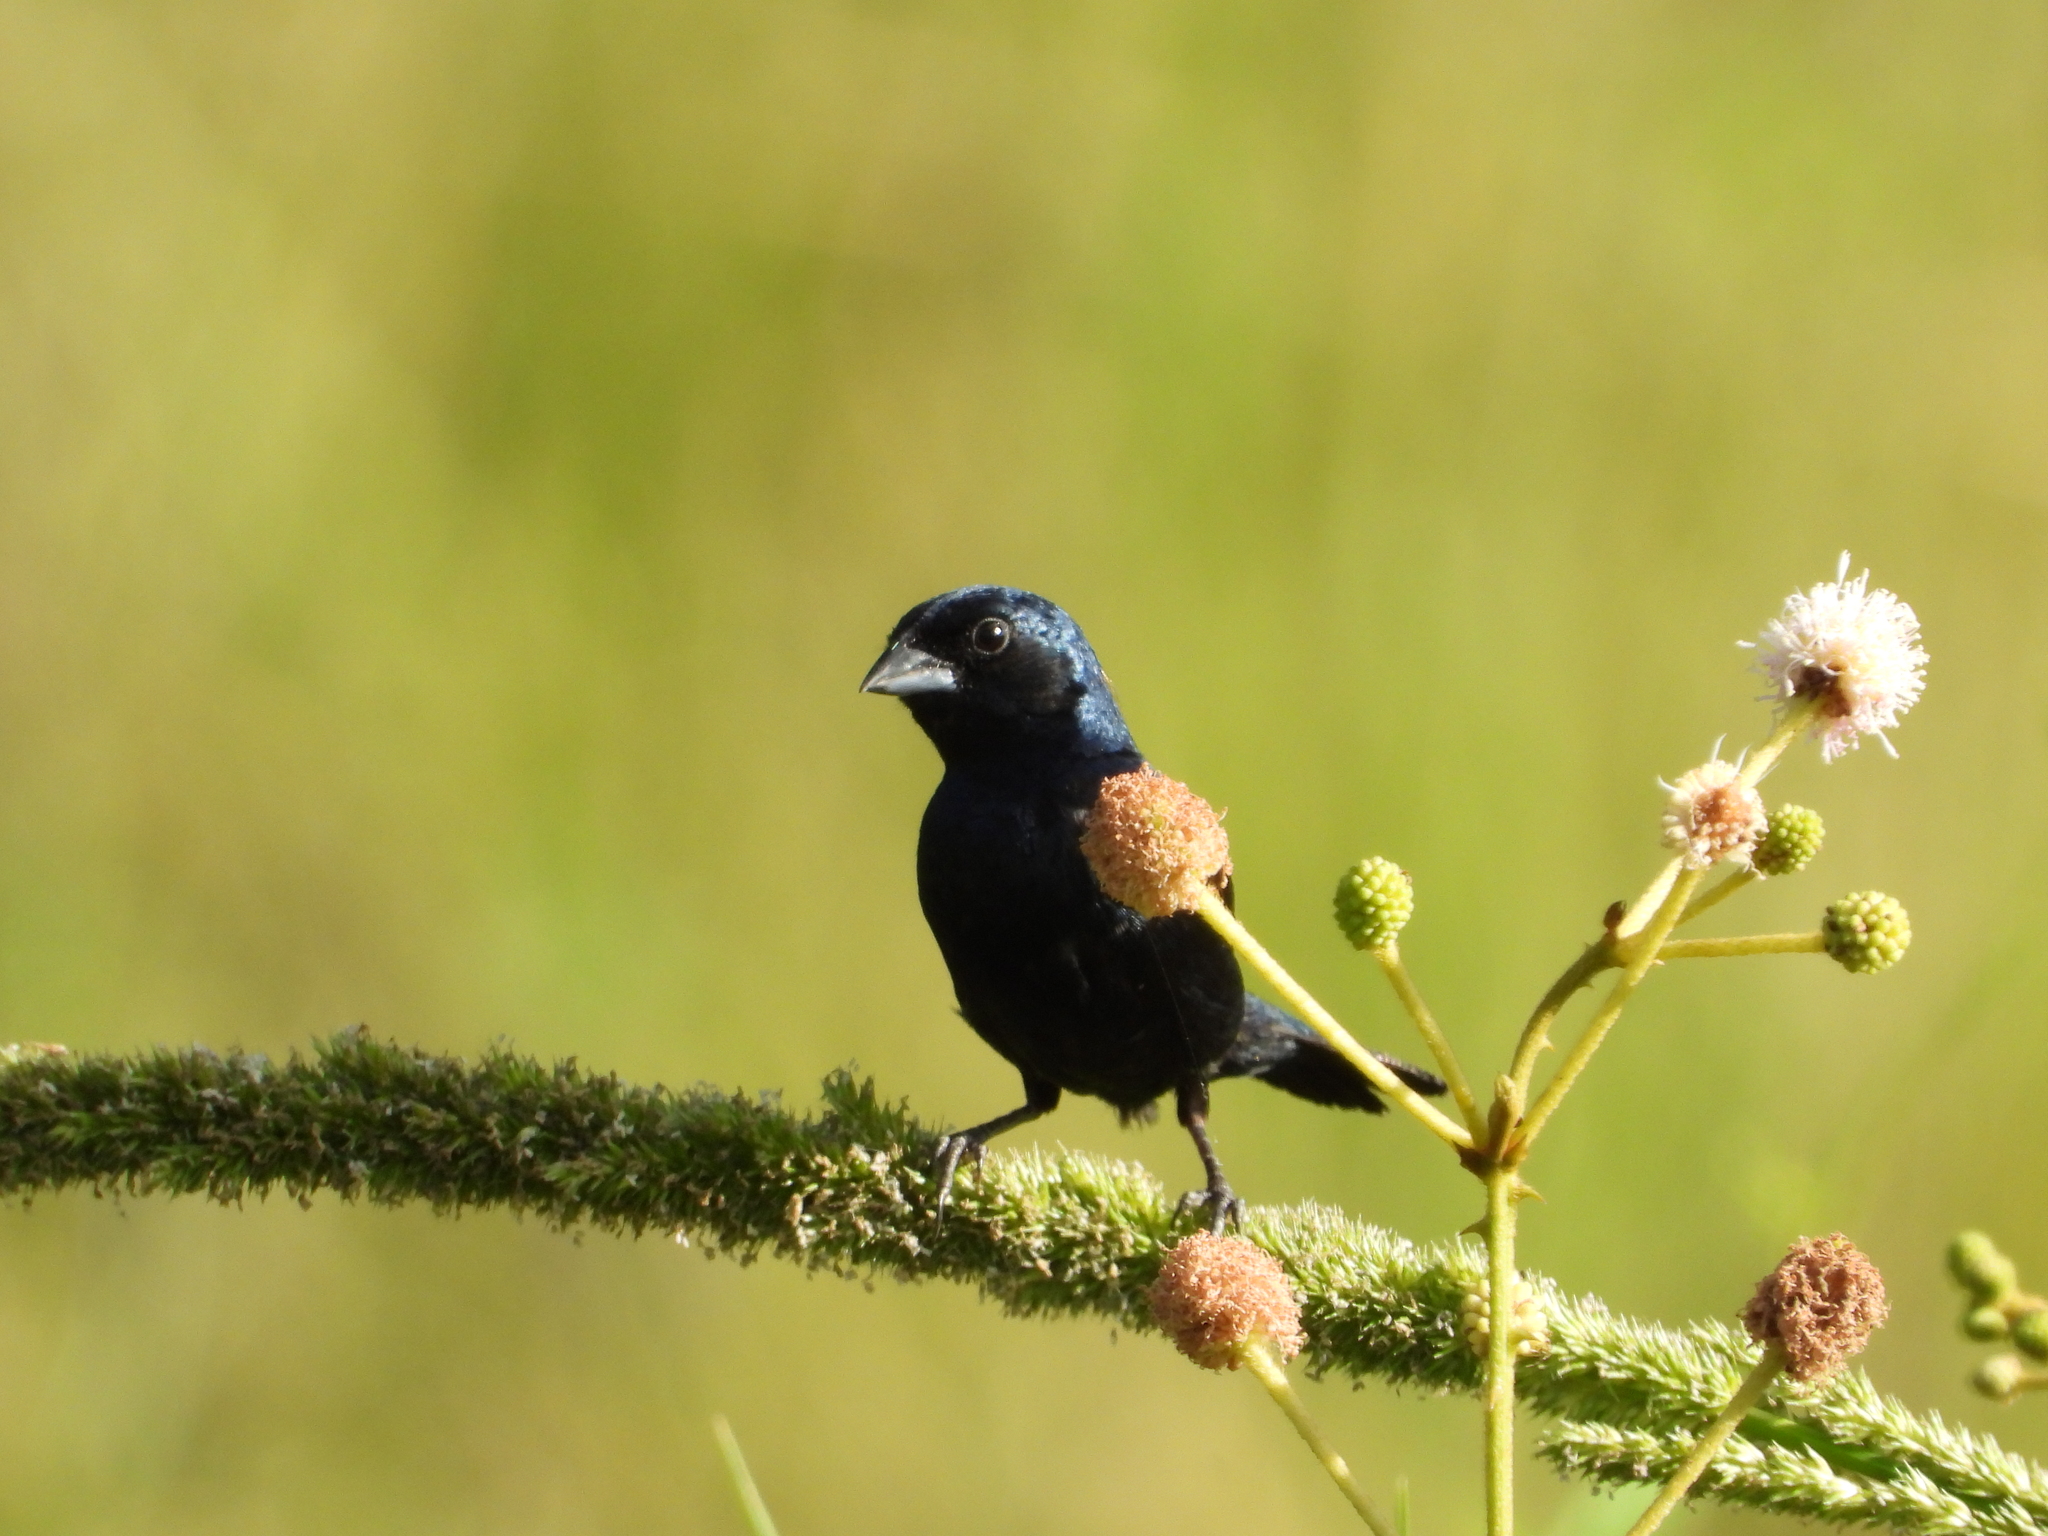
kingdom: Animalia
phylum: Chordata
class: Aves
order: Passeriformes
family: Thraupidae
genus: Volatinia
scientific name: Volatinia jacarina
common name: Blue-black grassquit
